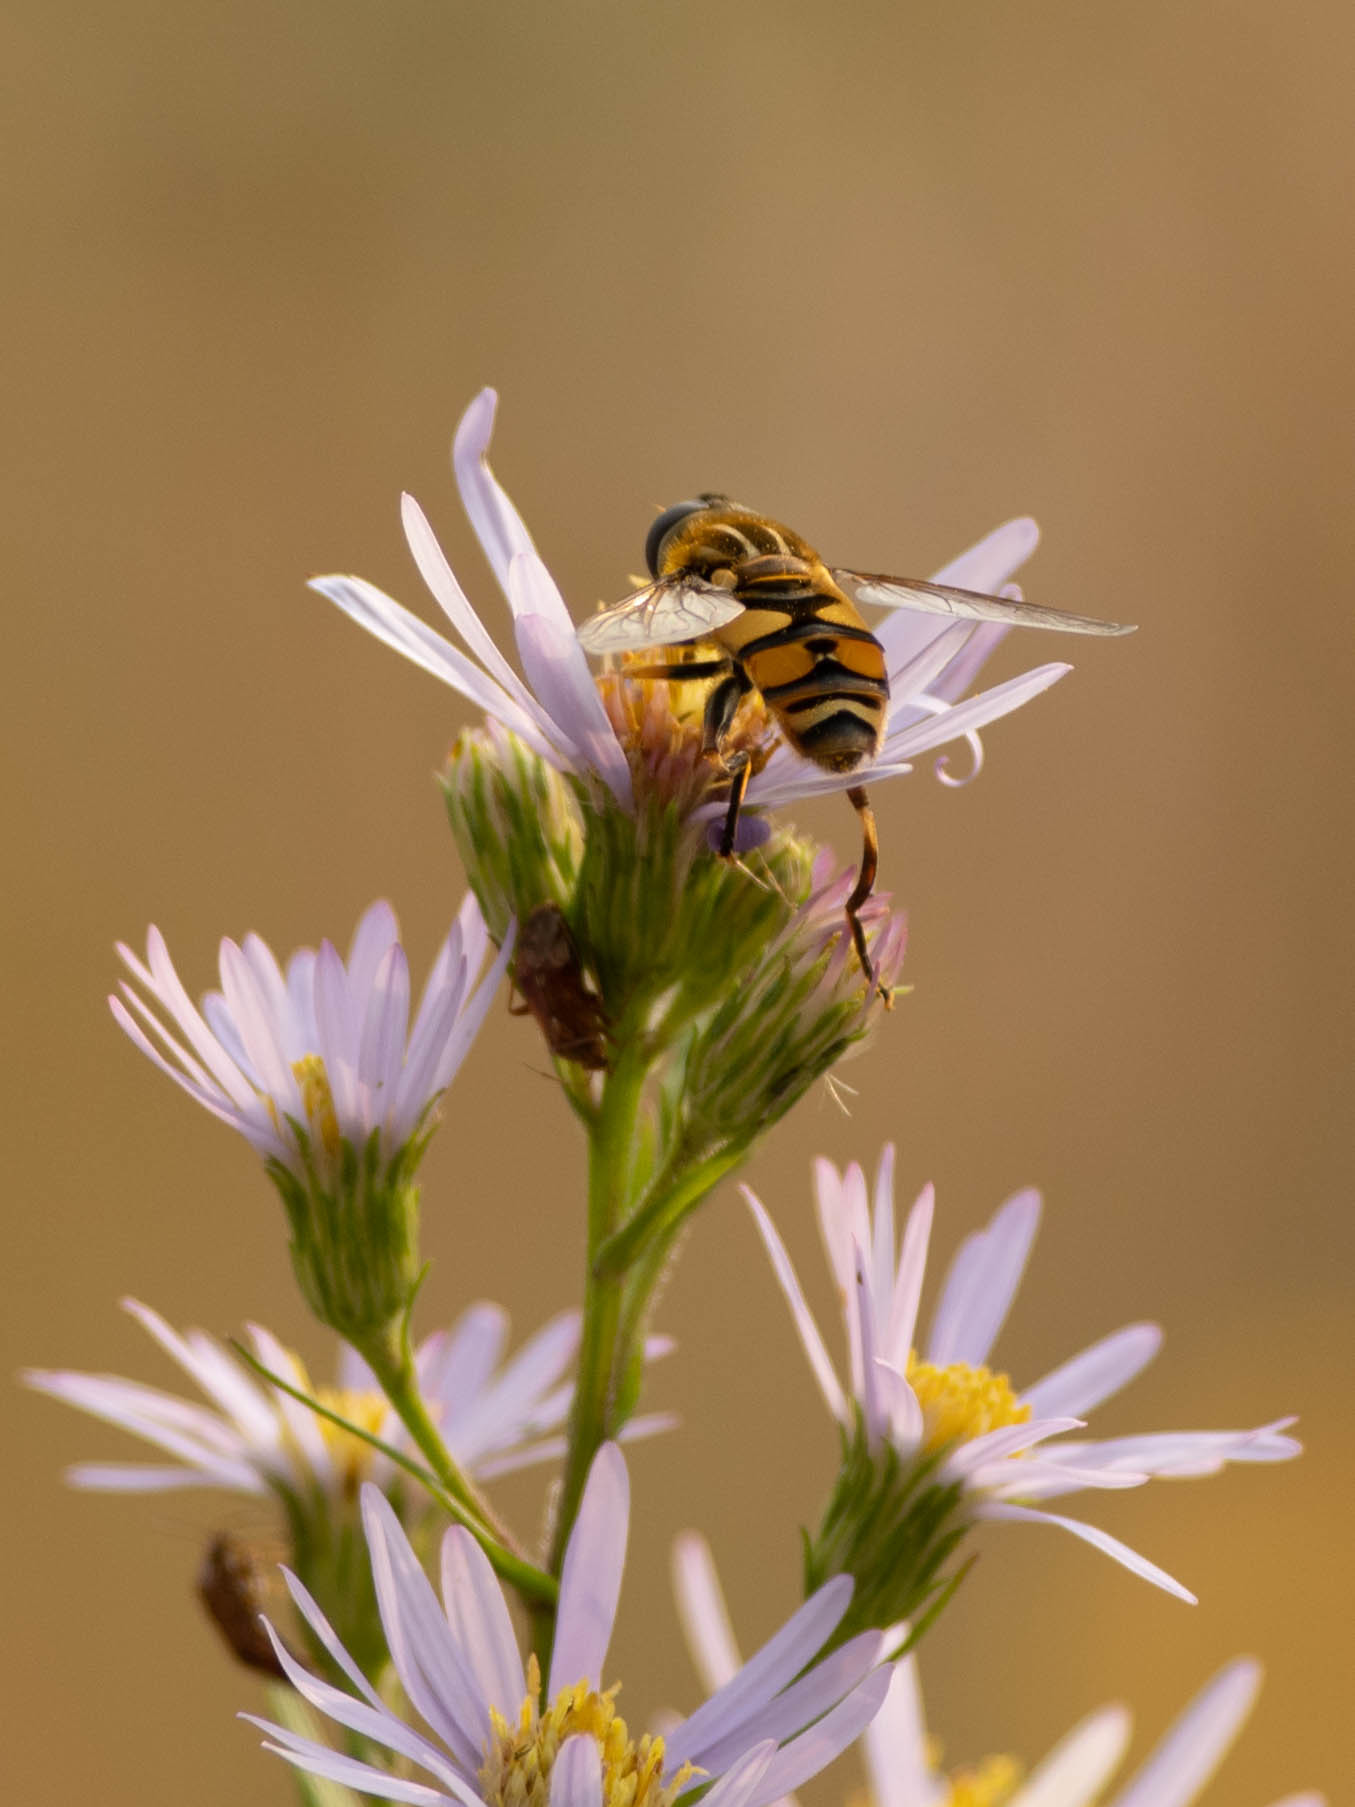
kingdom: Animalia
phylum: Arthropoda
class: Insecta
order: Diptera
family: Syrphidae
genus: Helophilus
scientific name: Helophilus fasciatus
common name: Narrow-headed marsh fly
